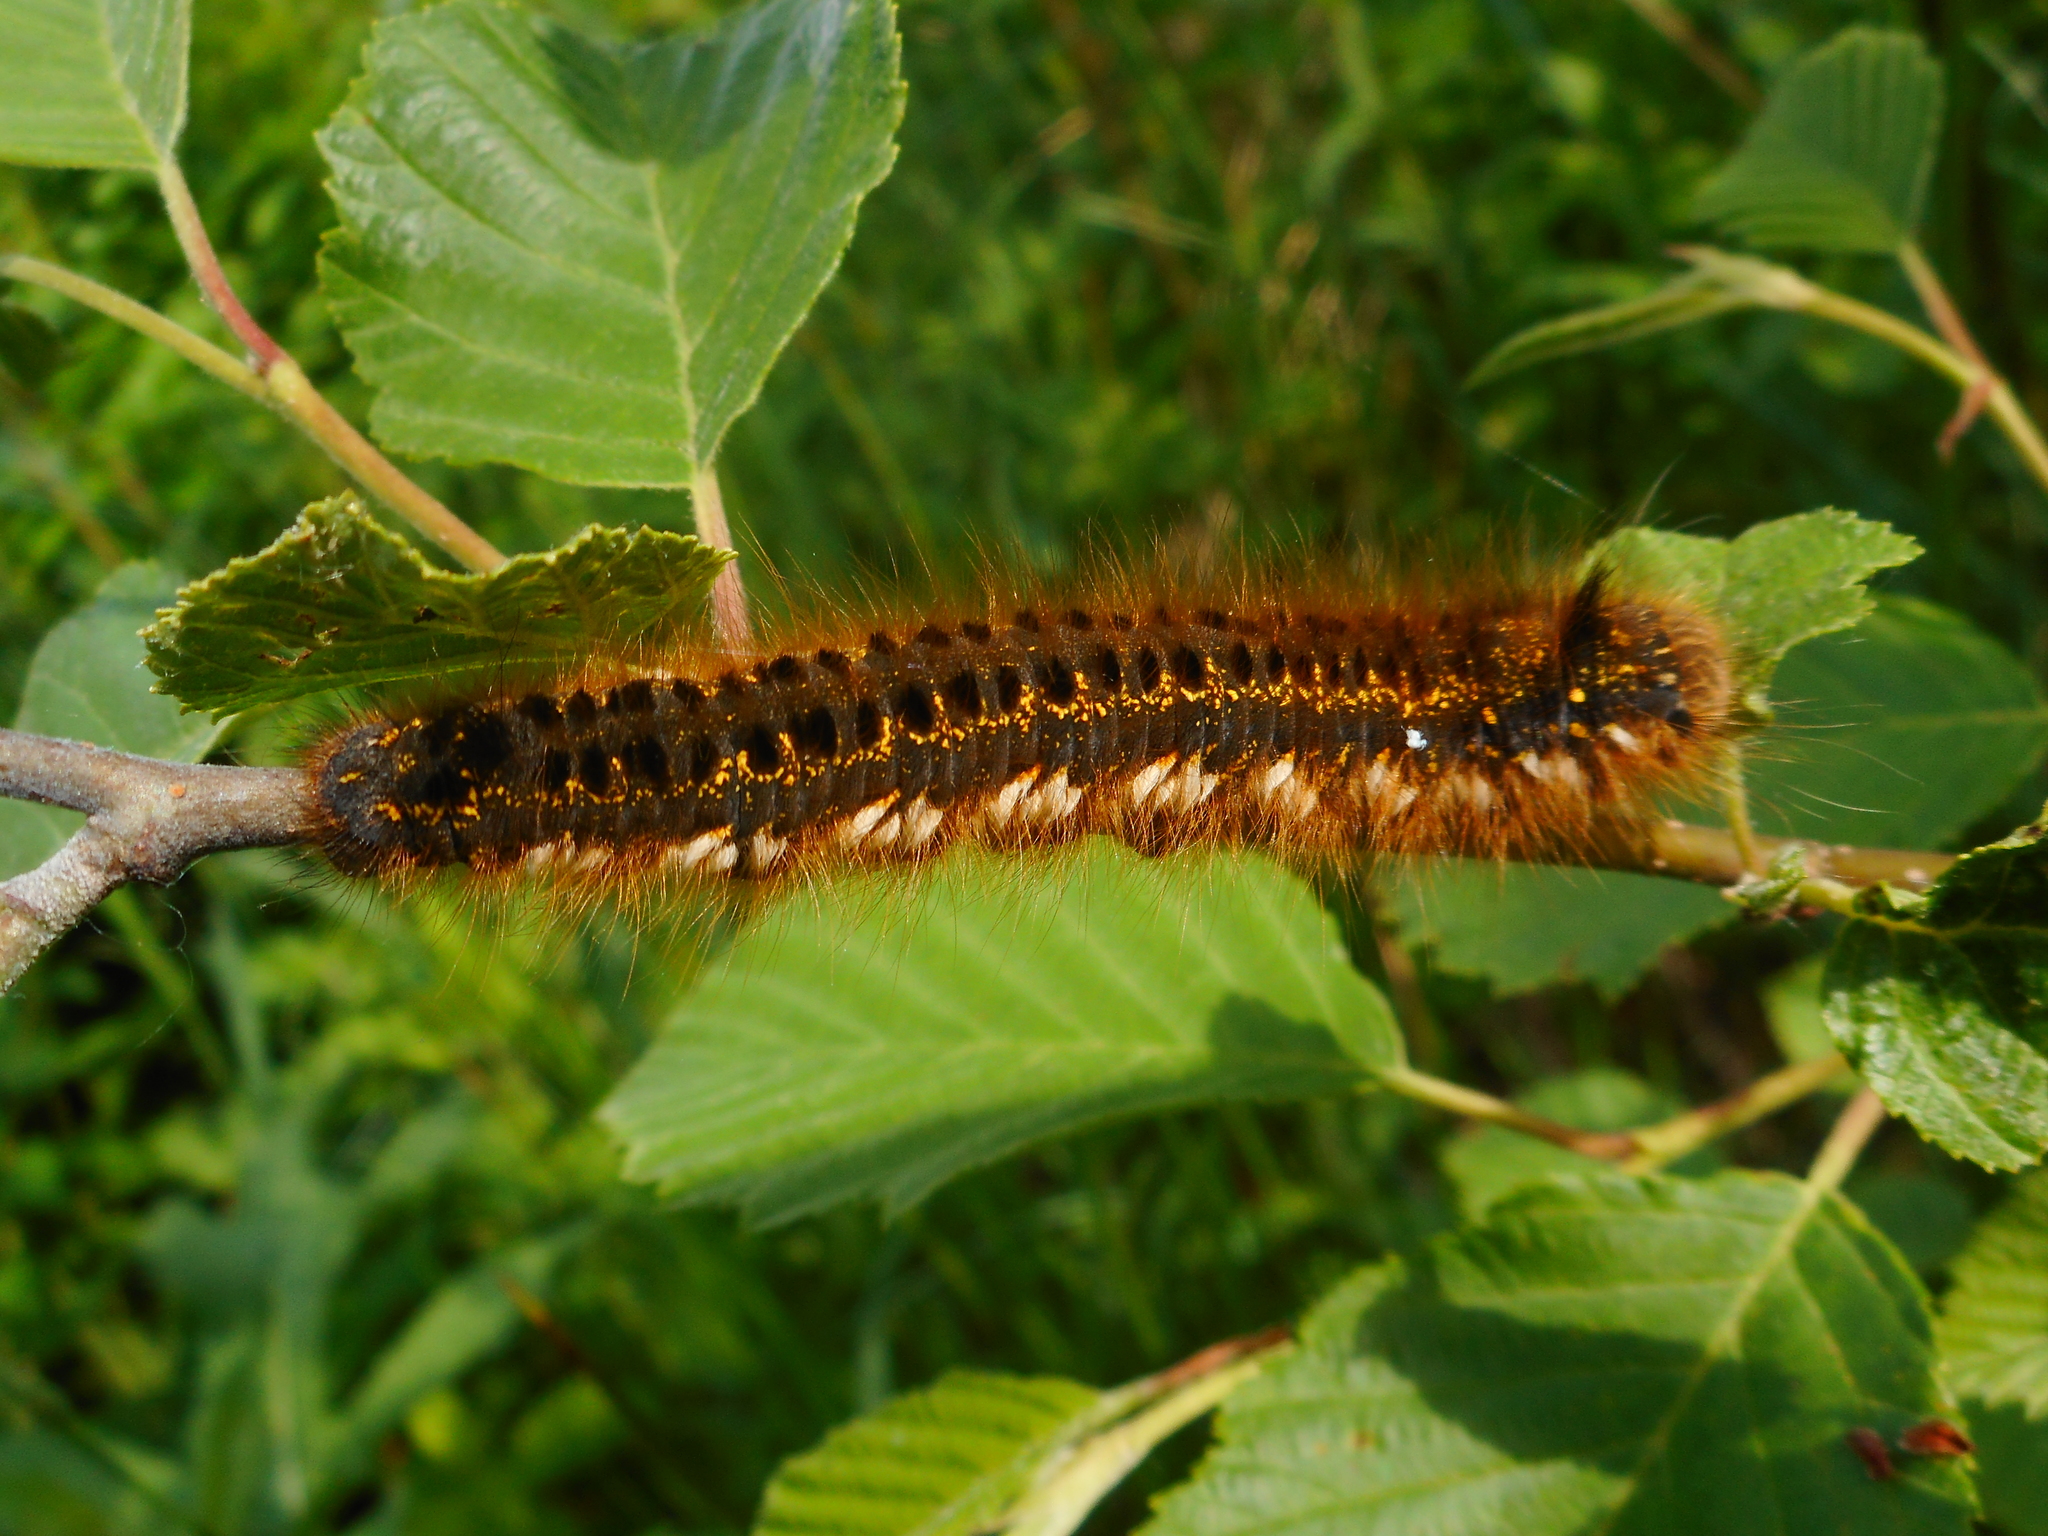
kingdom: Animalia
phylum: Arthropoda
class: Insecta
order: Lepidoptera
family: Lasiocampidae
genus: Euthrix
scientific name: Euthrix potatoria
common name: Drinker
